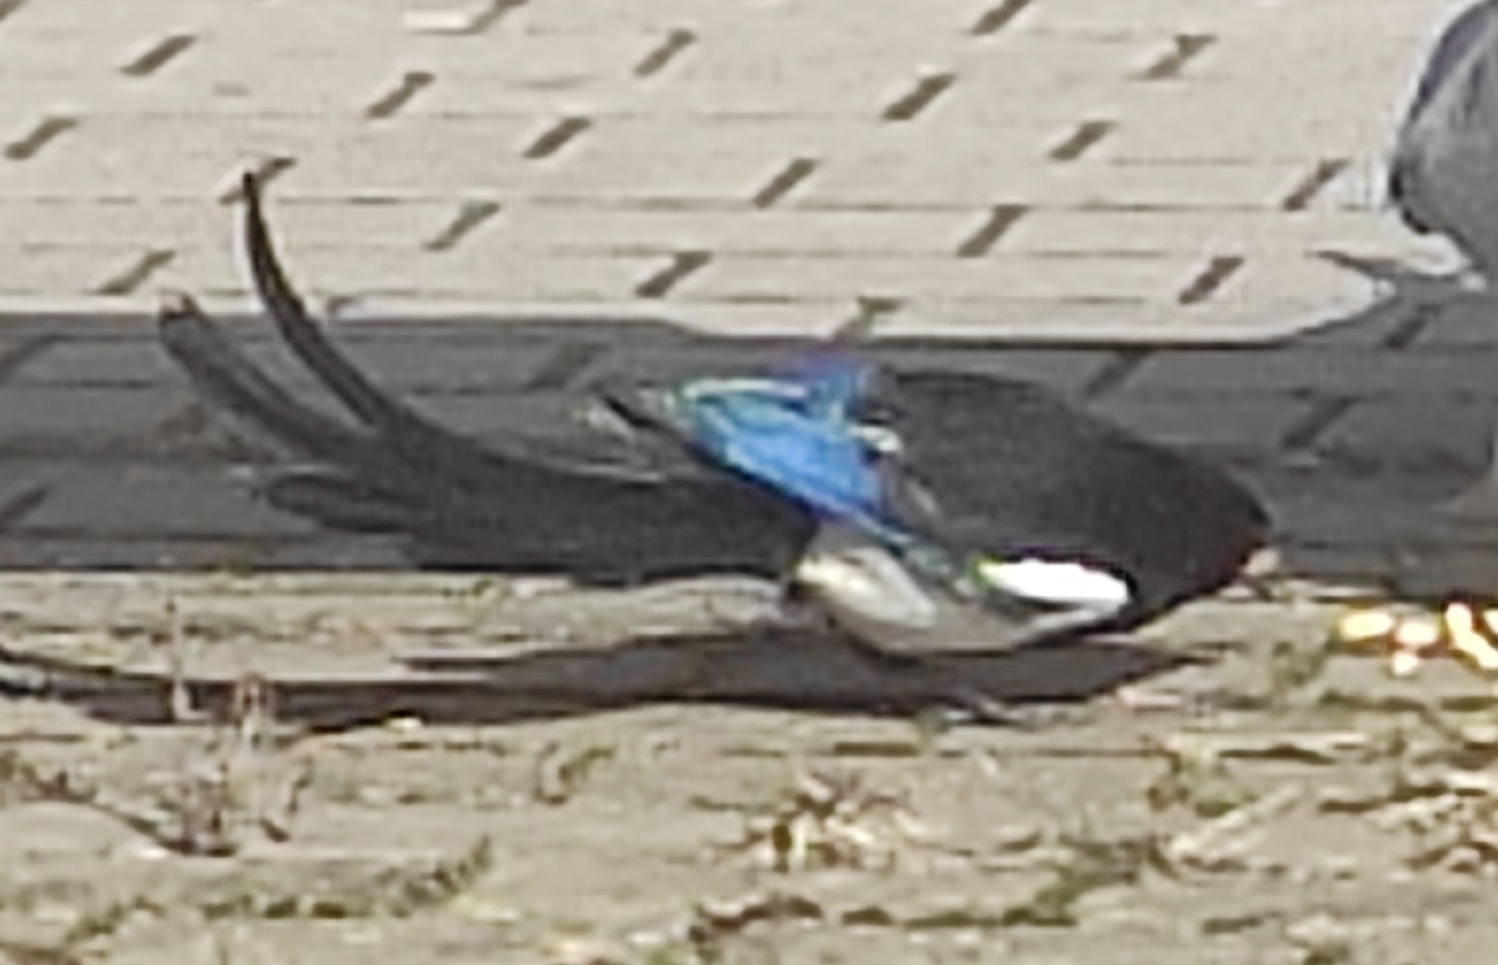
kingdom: Animalia
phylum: Chordata
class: Aves
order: Passeriformes
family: Corvidae
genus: Pica
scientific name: Pica pica
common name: Eurasian magpie
